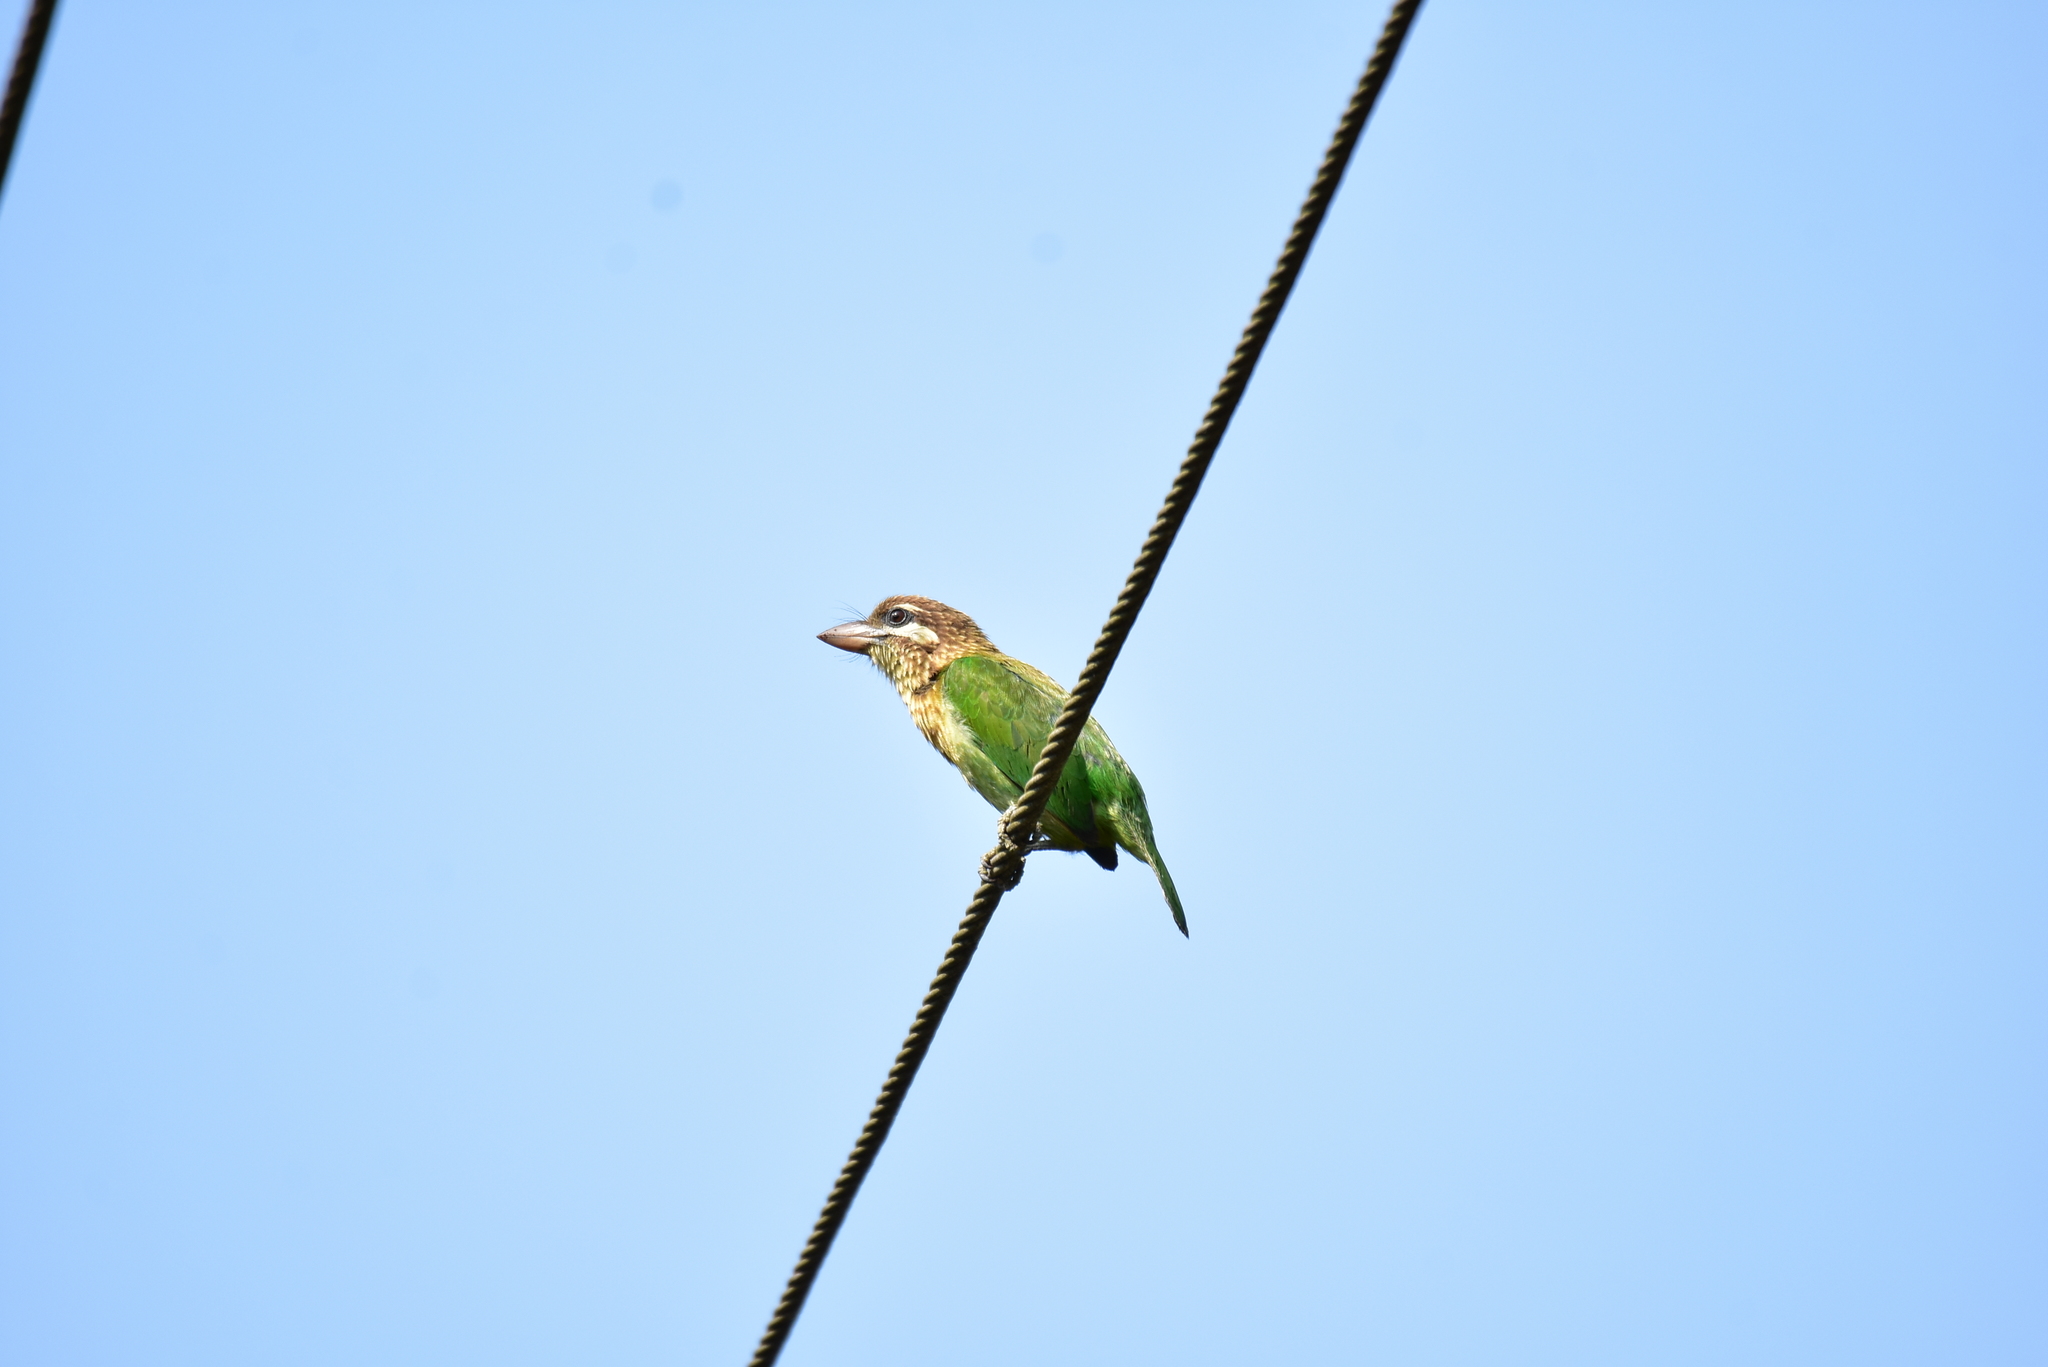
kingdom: Animalia
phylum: Chordata
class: Aves
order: Piciformes
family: Megalaimidae
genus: Psilopogon
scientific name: Psilopogon viridis
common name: White-cheeked barbet
